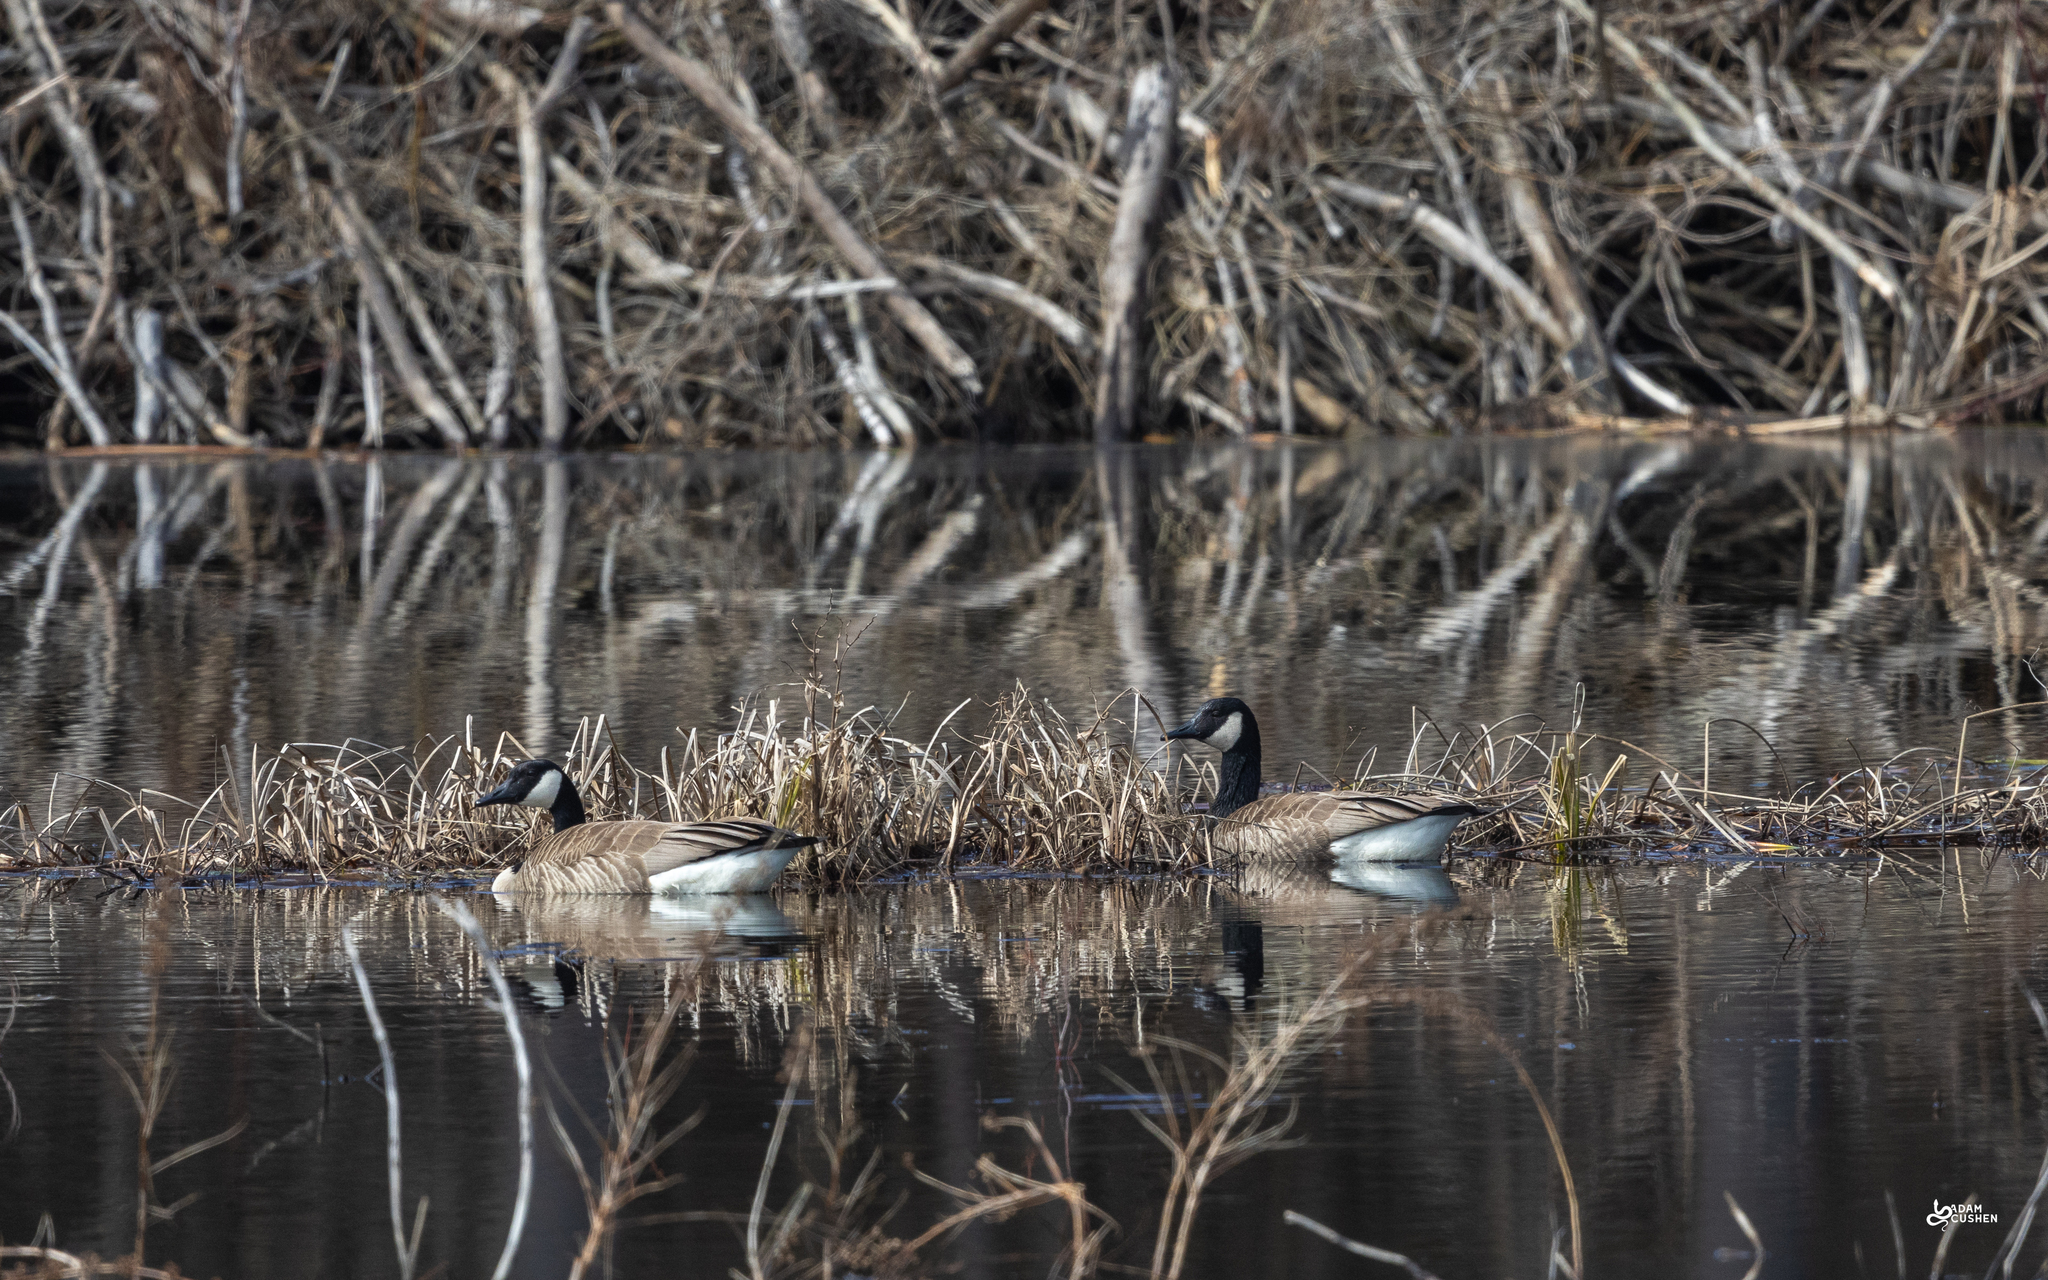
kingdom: Animalia
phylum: Chordata
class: Aves
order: Anseriformes
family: Anatidae
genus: Branta
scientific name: Branta canadensis
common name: Canada goose
